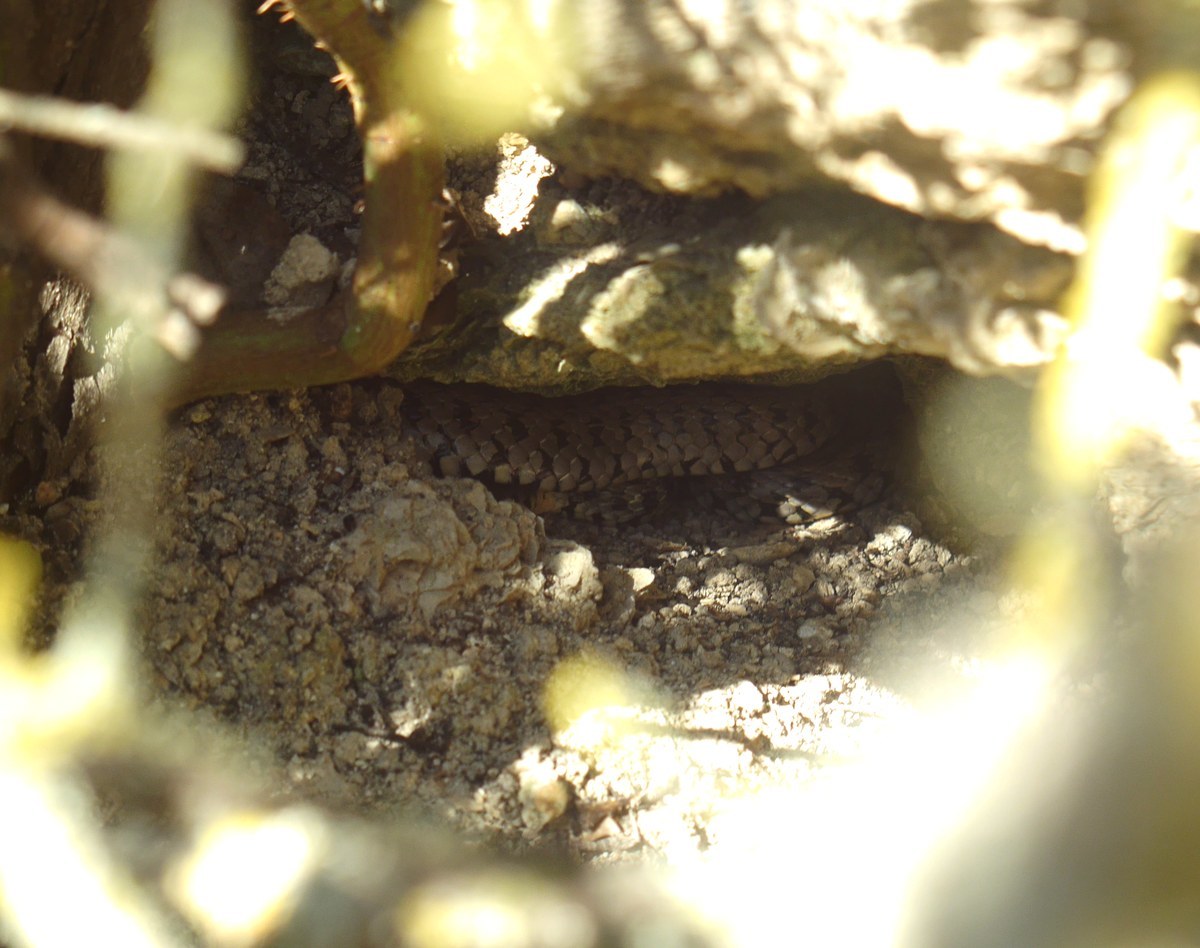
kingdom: Animalia
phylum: Chordata
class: Squamata
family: Colubridae
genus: Natrix
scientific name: Natrix natrix
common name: Grass snake
